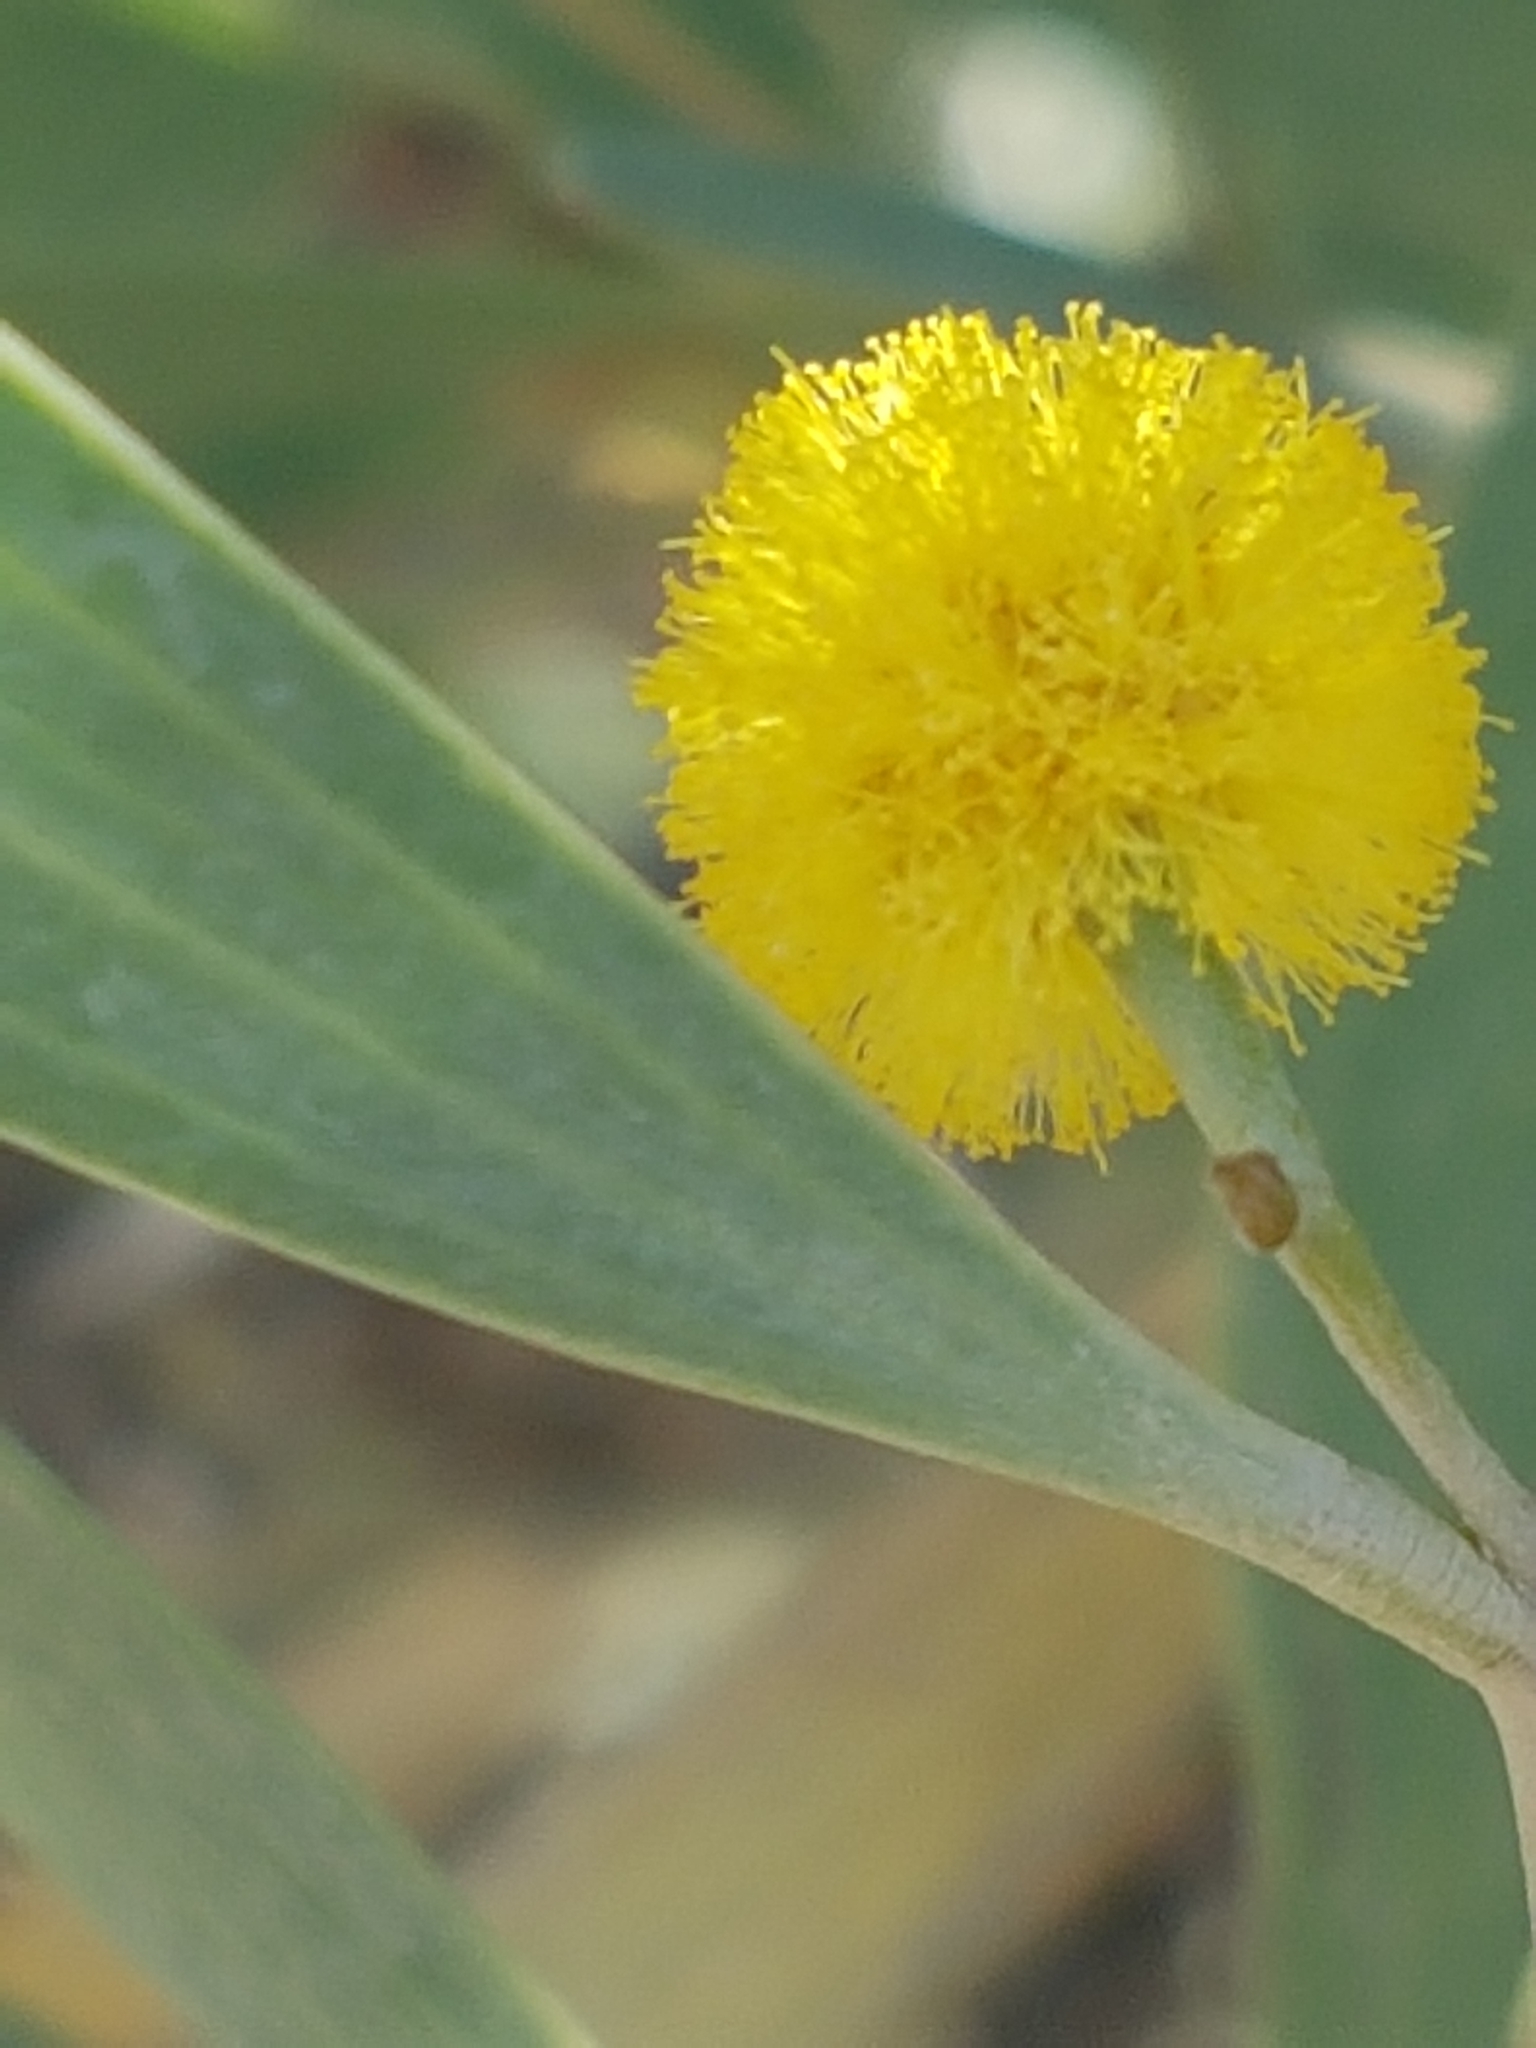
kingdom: Plantae
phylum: Tracheophyta
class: Magnoliopsida
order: Fabales
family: Fabaceae
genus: Acacia
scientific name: Acacia cyclops
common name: Coastal wattle
